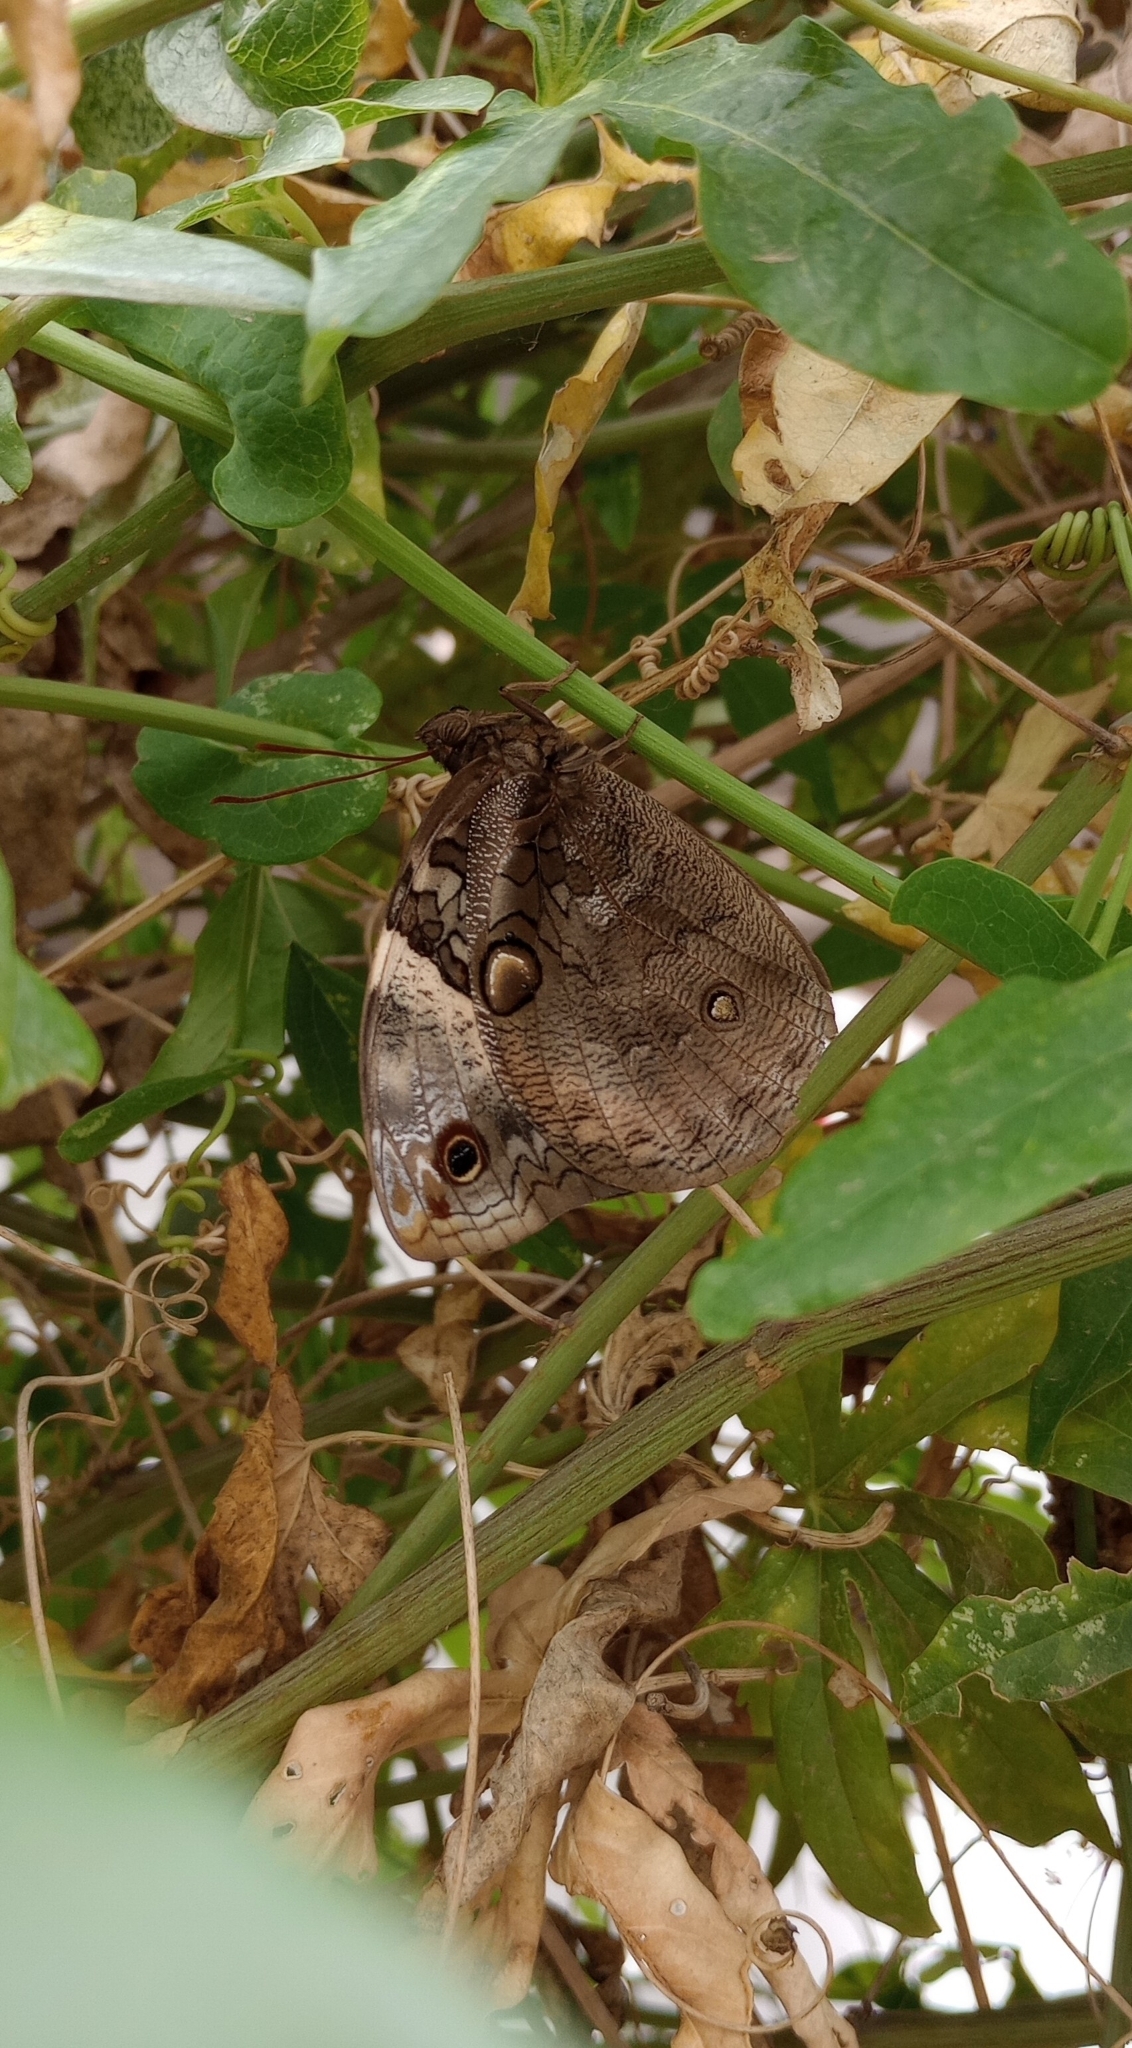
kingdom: Animalia
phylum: Arthropoda
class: Insecta
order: Lepidoptera
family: Nymphalidae
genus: Opsiphanes
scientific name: Opsiphanes invirae
